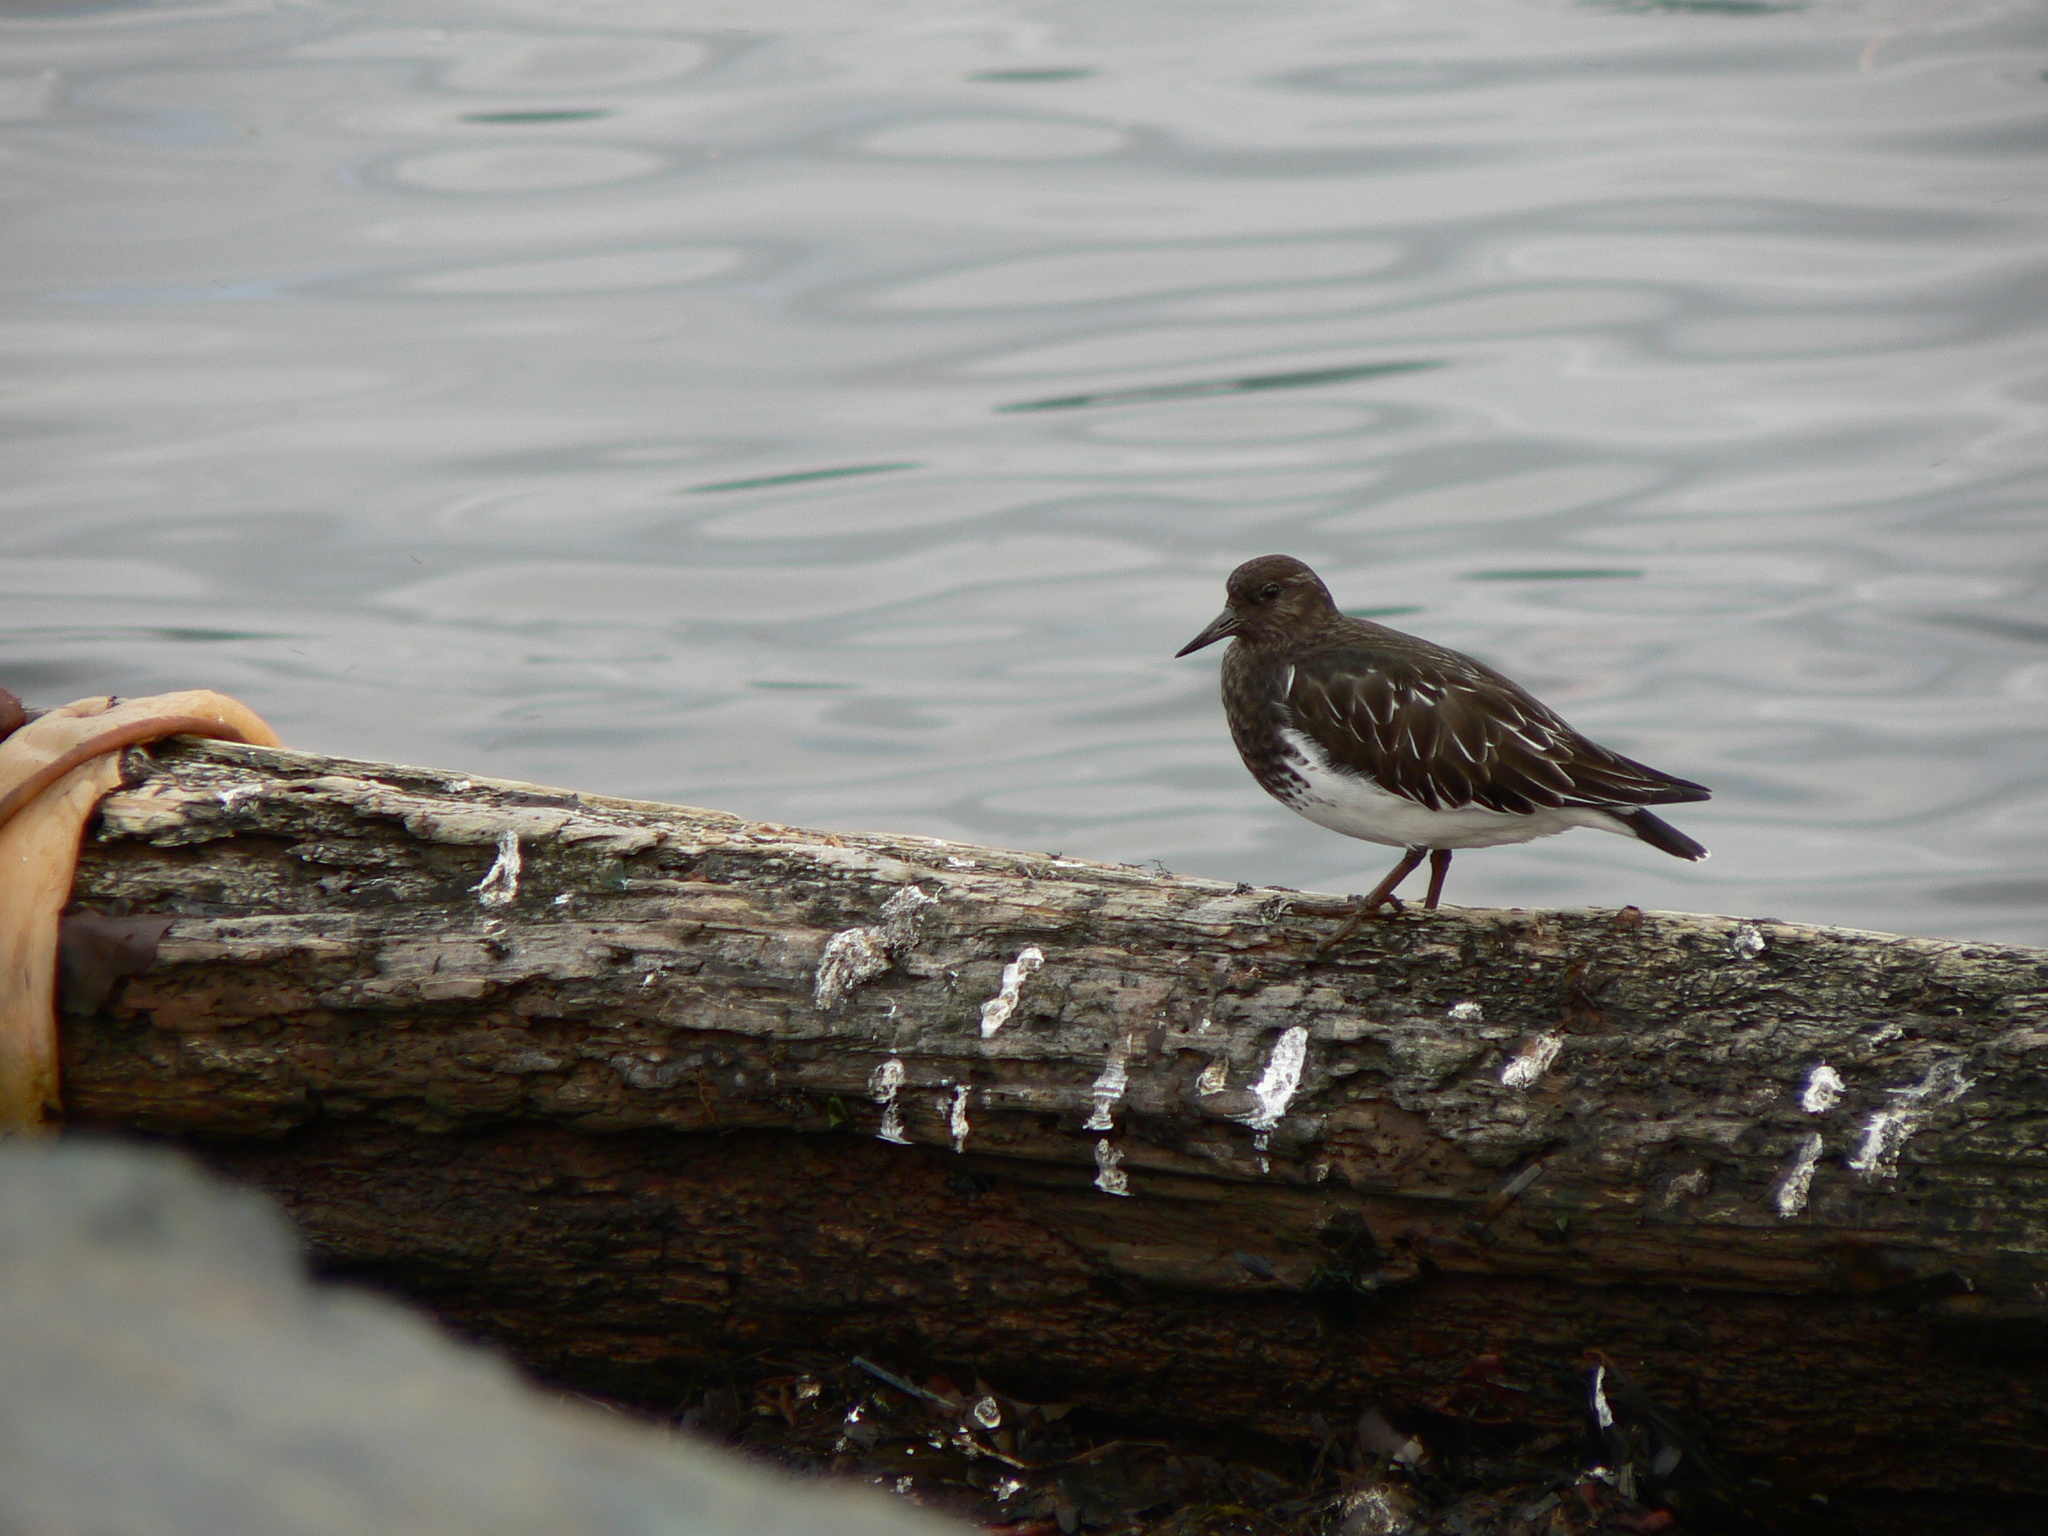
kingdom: Animalia
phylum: Chordata
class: Aves
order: Charadriiformes
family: Scolopacidae
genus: Arenaria
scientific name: Arenaria melanocephala
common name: Black turnstone
